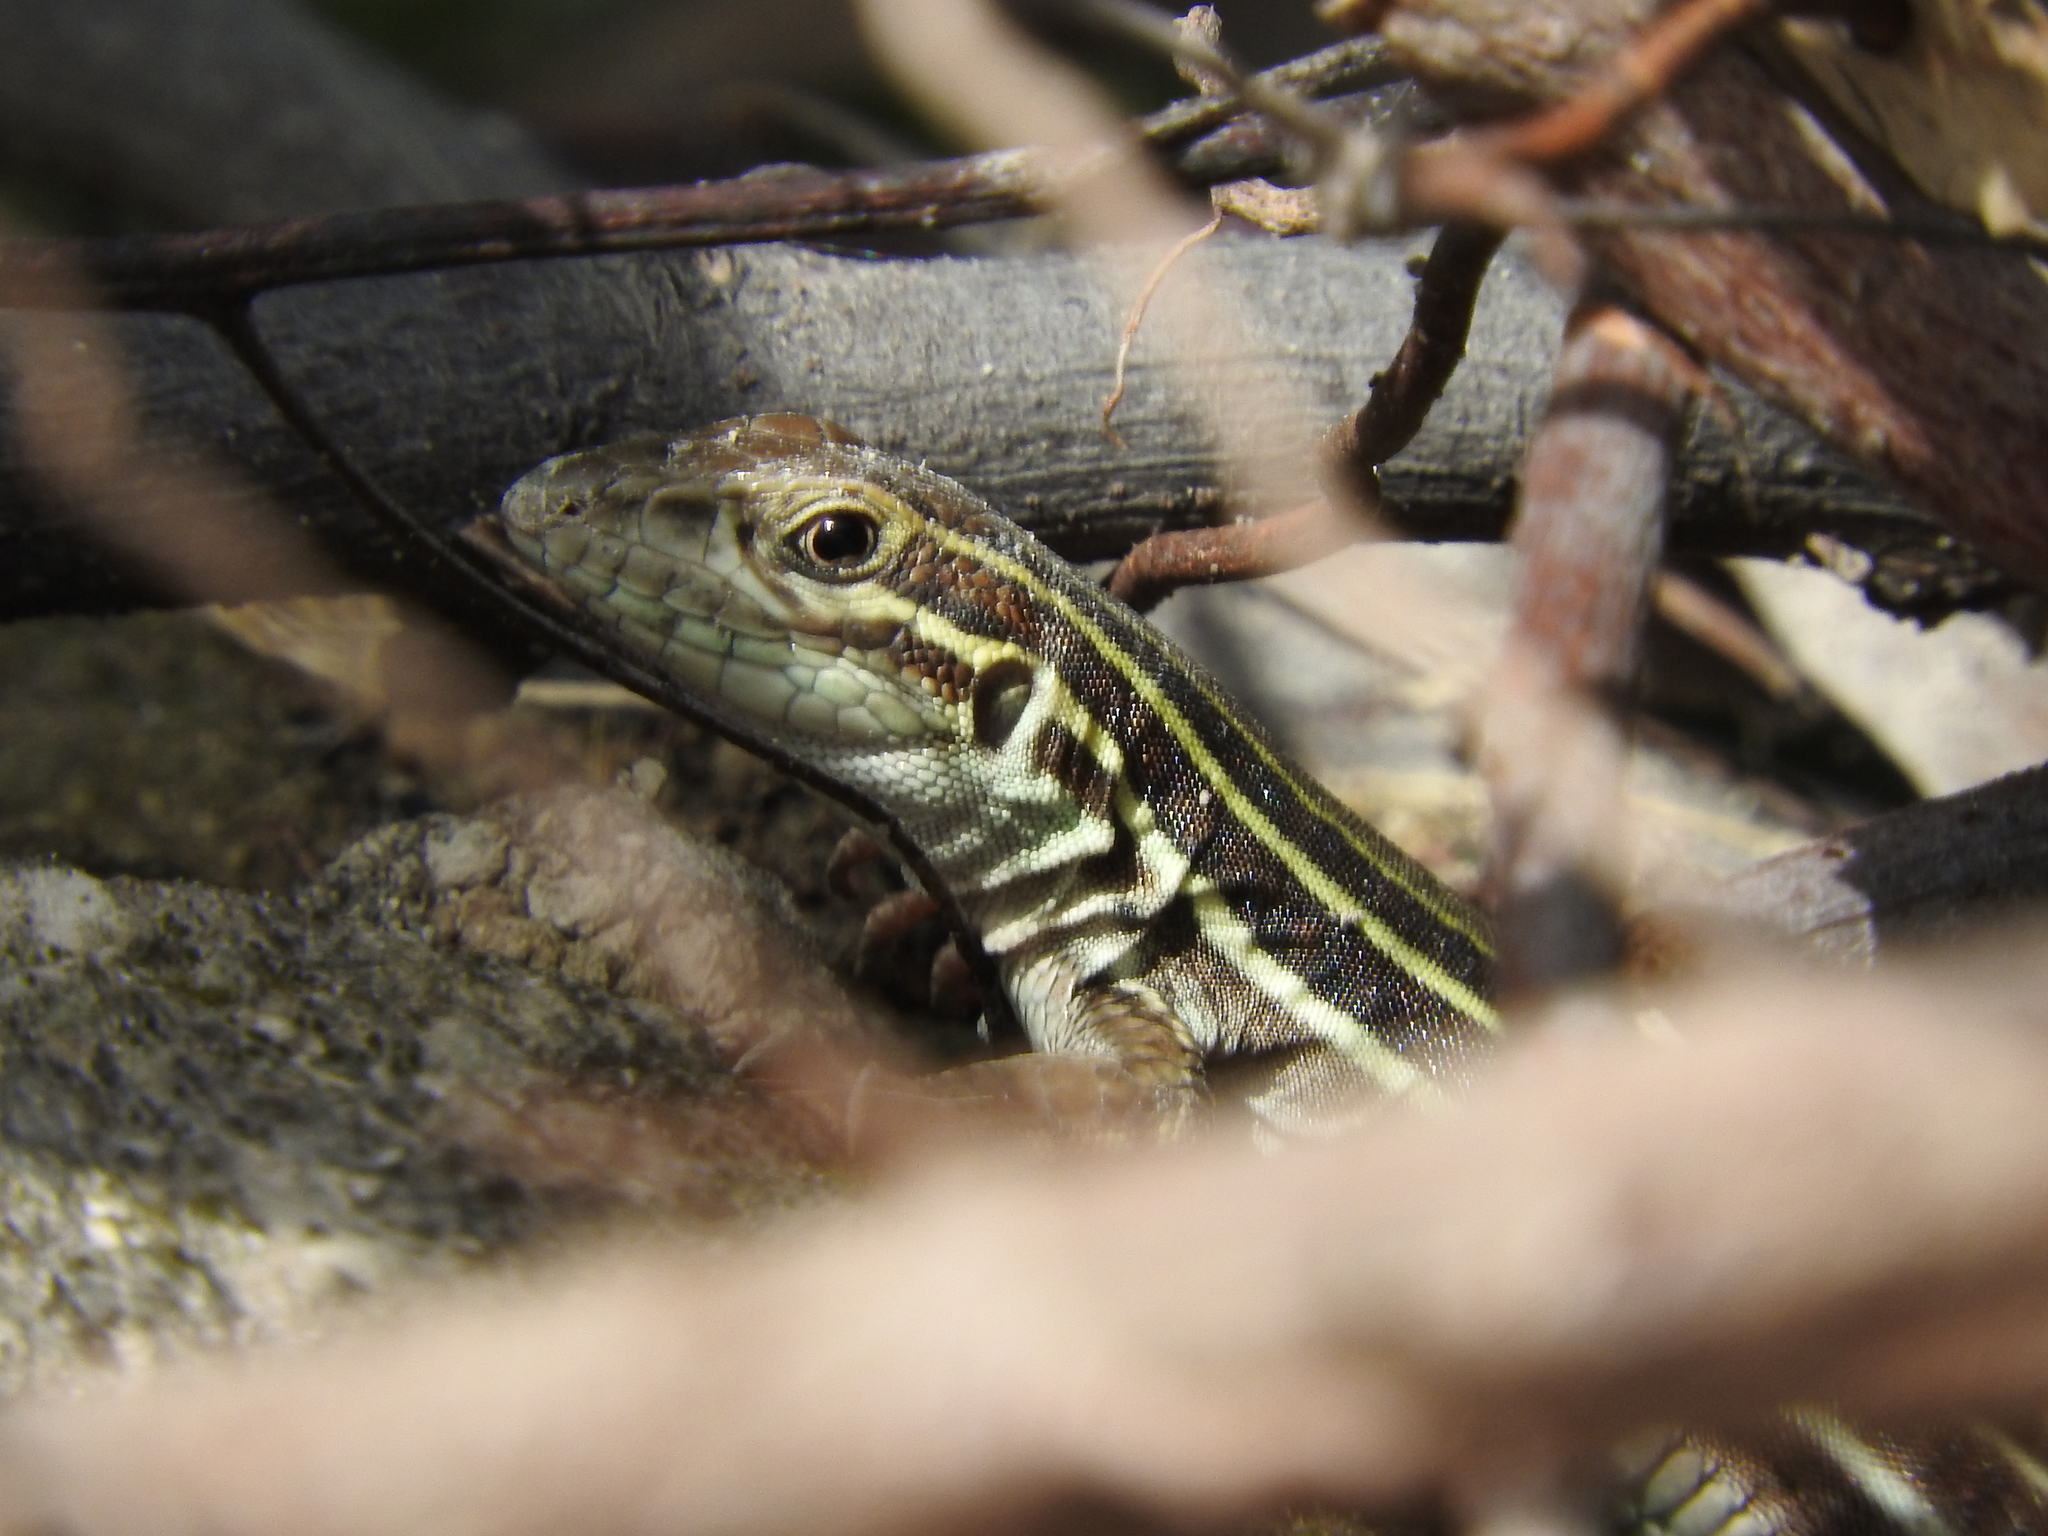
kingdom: Animalia
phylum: Chordata
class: Squamata
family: Teiidae
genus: Aspidoscelis
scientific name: Aspidoscelis gularis
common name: Eastern spotted whiptail
